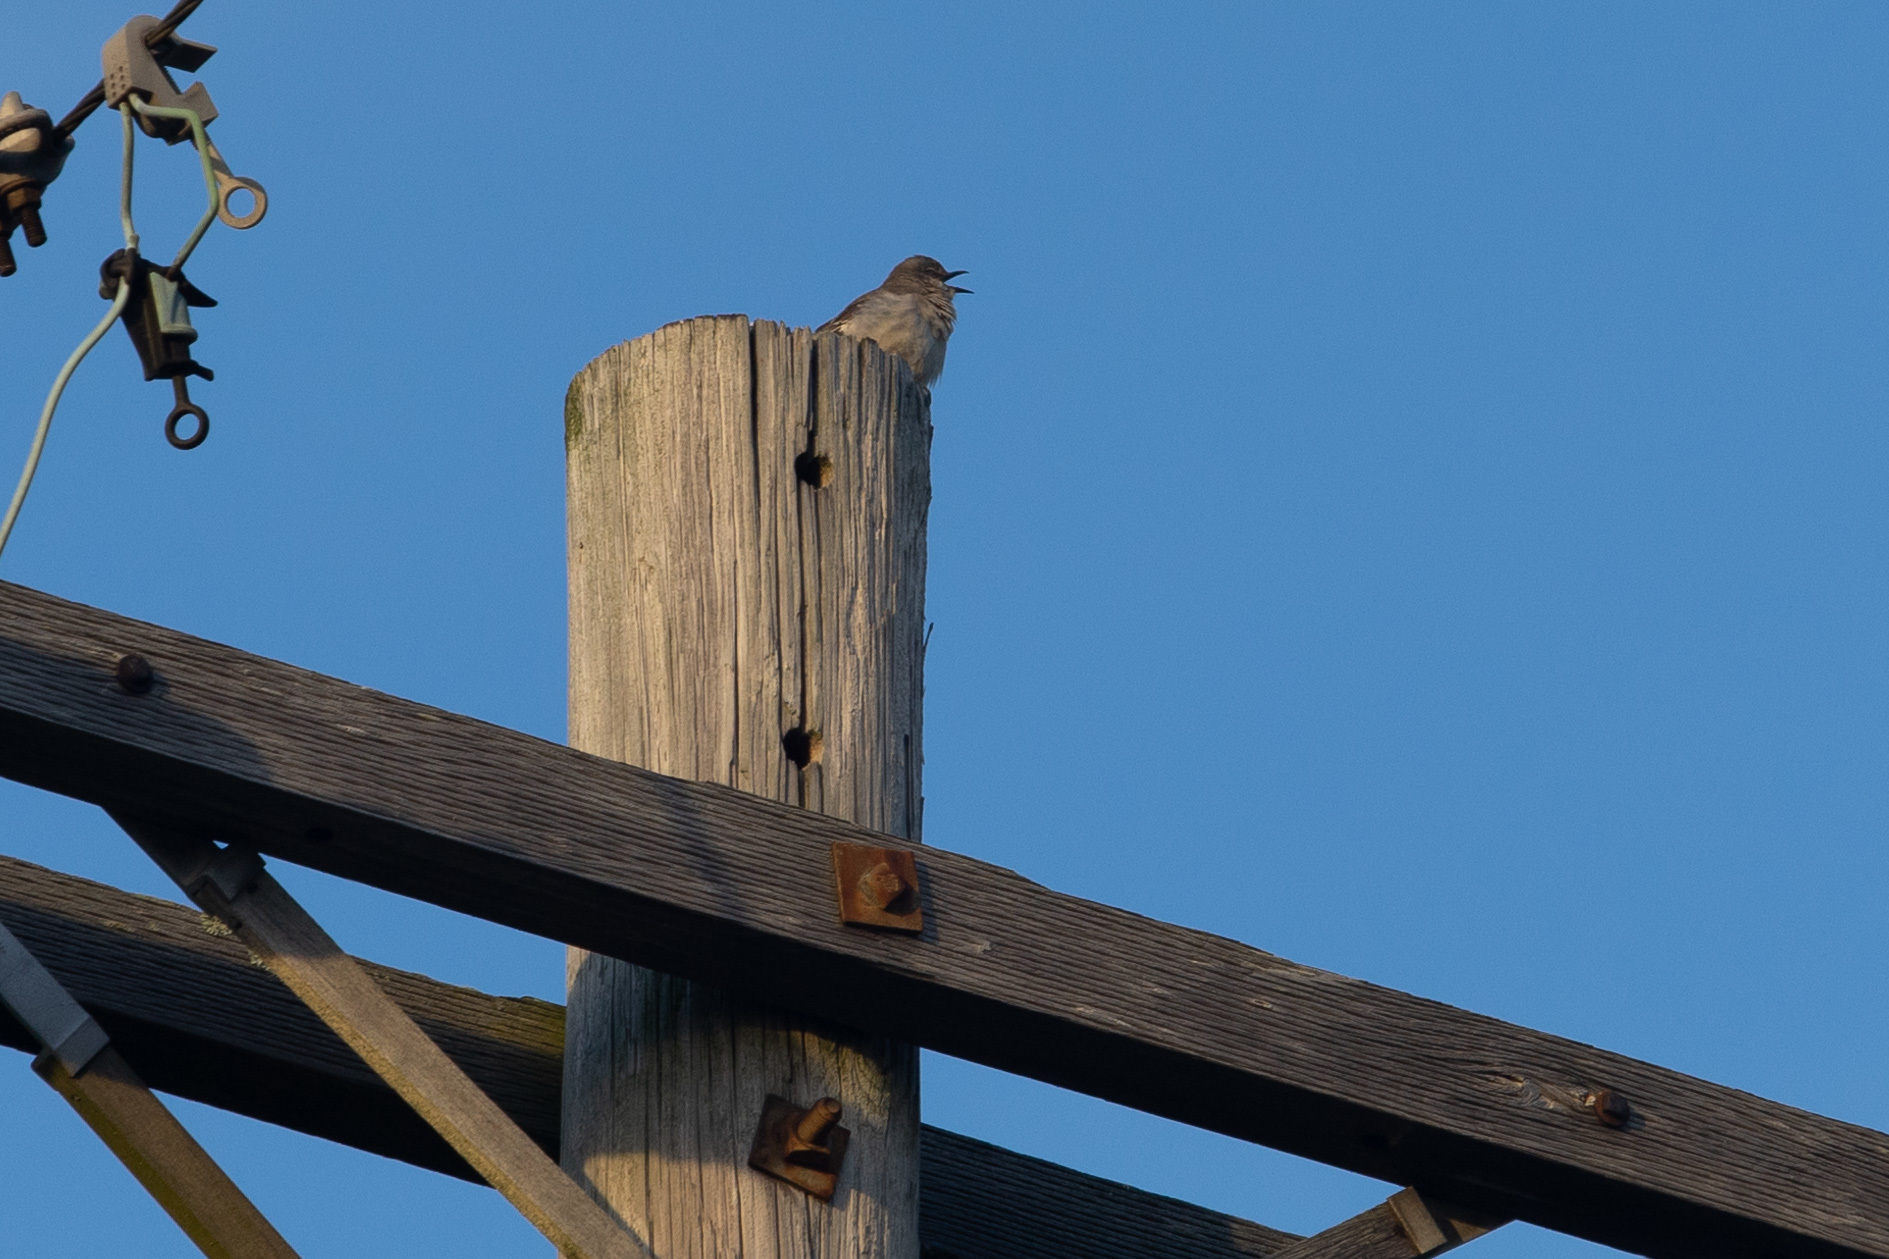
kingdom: Animalia
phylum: Chordata
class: Aves
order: Passeriformes
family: Mimidae
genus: Mimus
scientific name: Mimus polyglottos
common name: Northern mockingbird
